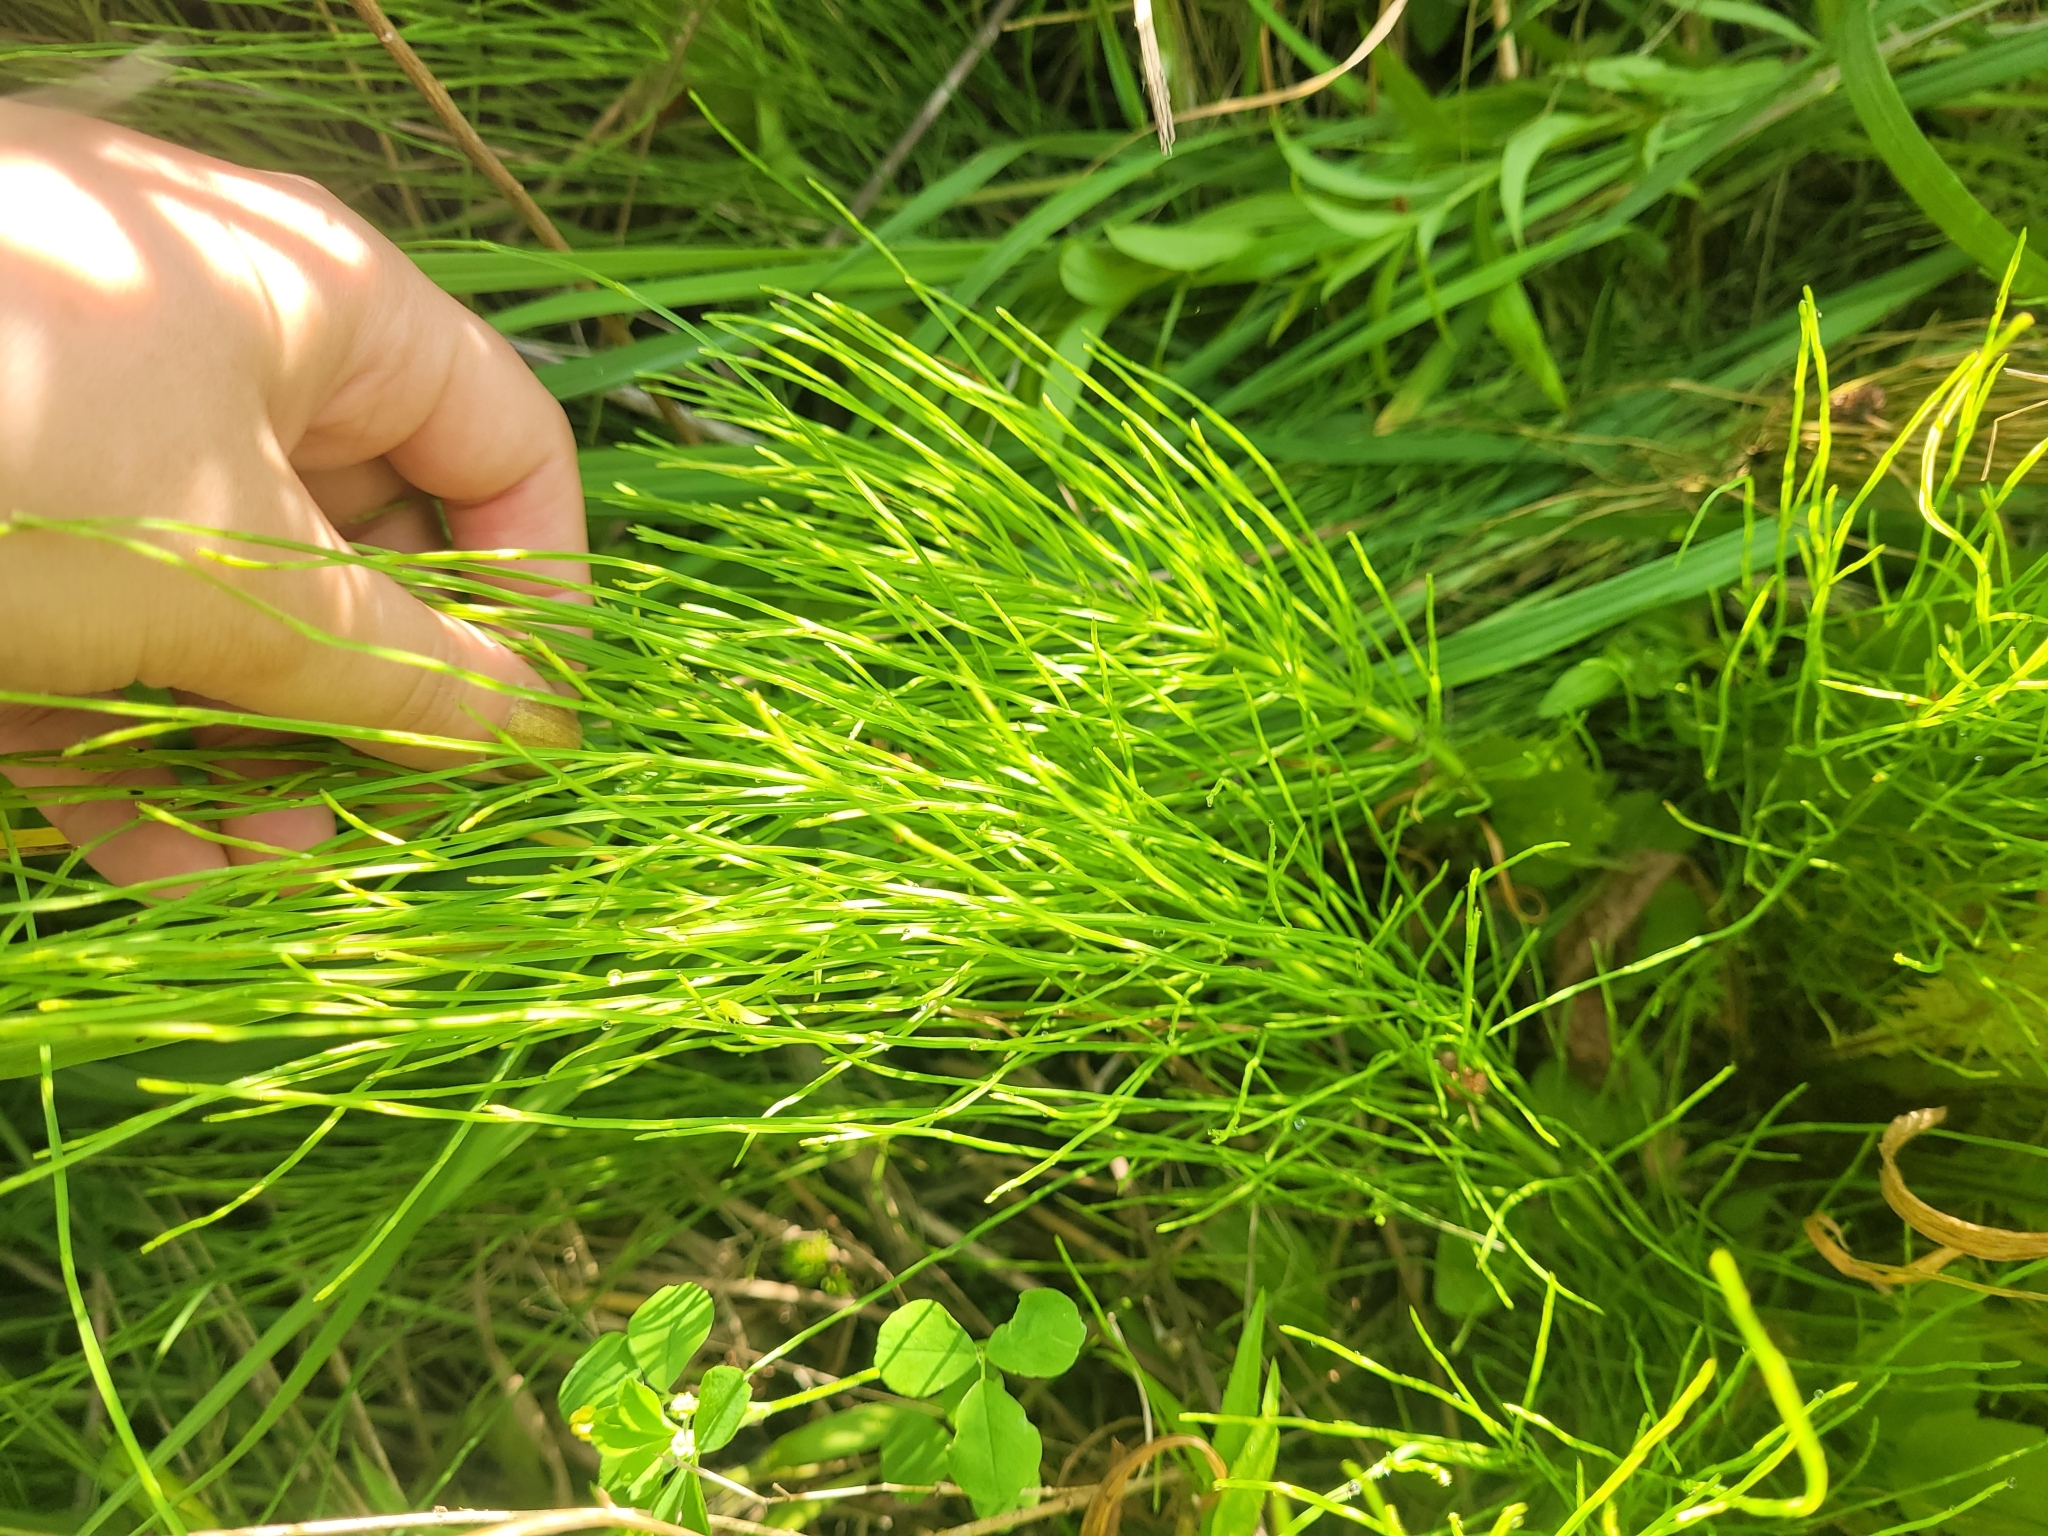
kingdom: Plantae
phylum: Tracheophyta
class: Polypodiopsida
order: Equisetales
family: Equisetaceae
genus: Equisetum
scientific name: Equisetum arvense
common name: Field horsetail
